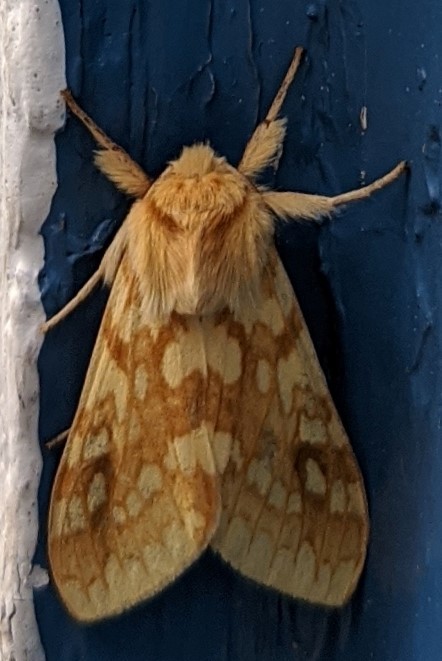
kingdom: Animalia
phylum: Arthropoda
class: Insecta
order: Lepidoptera
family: Erebidae
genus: Lophocampa
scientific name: Lophocampa maculata
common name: Spotted tussock moth
